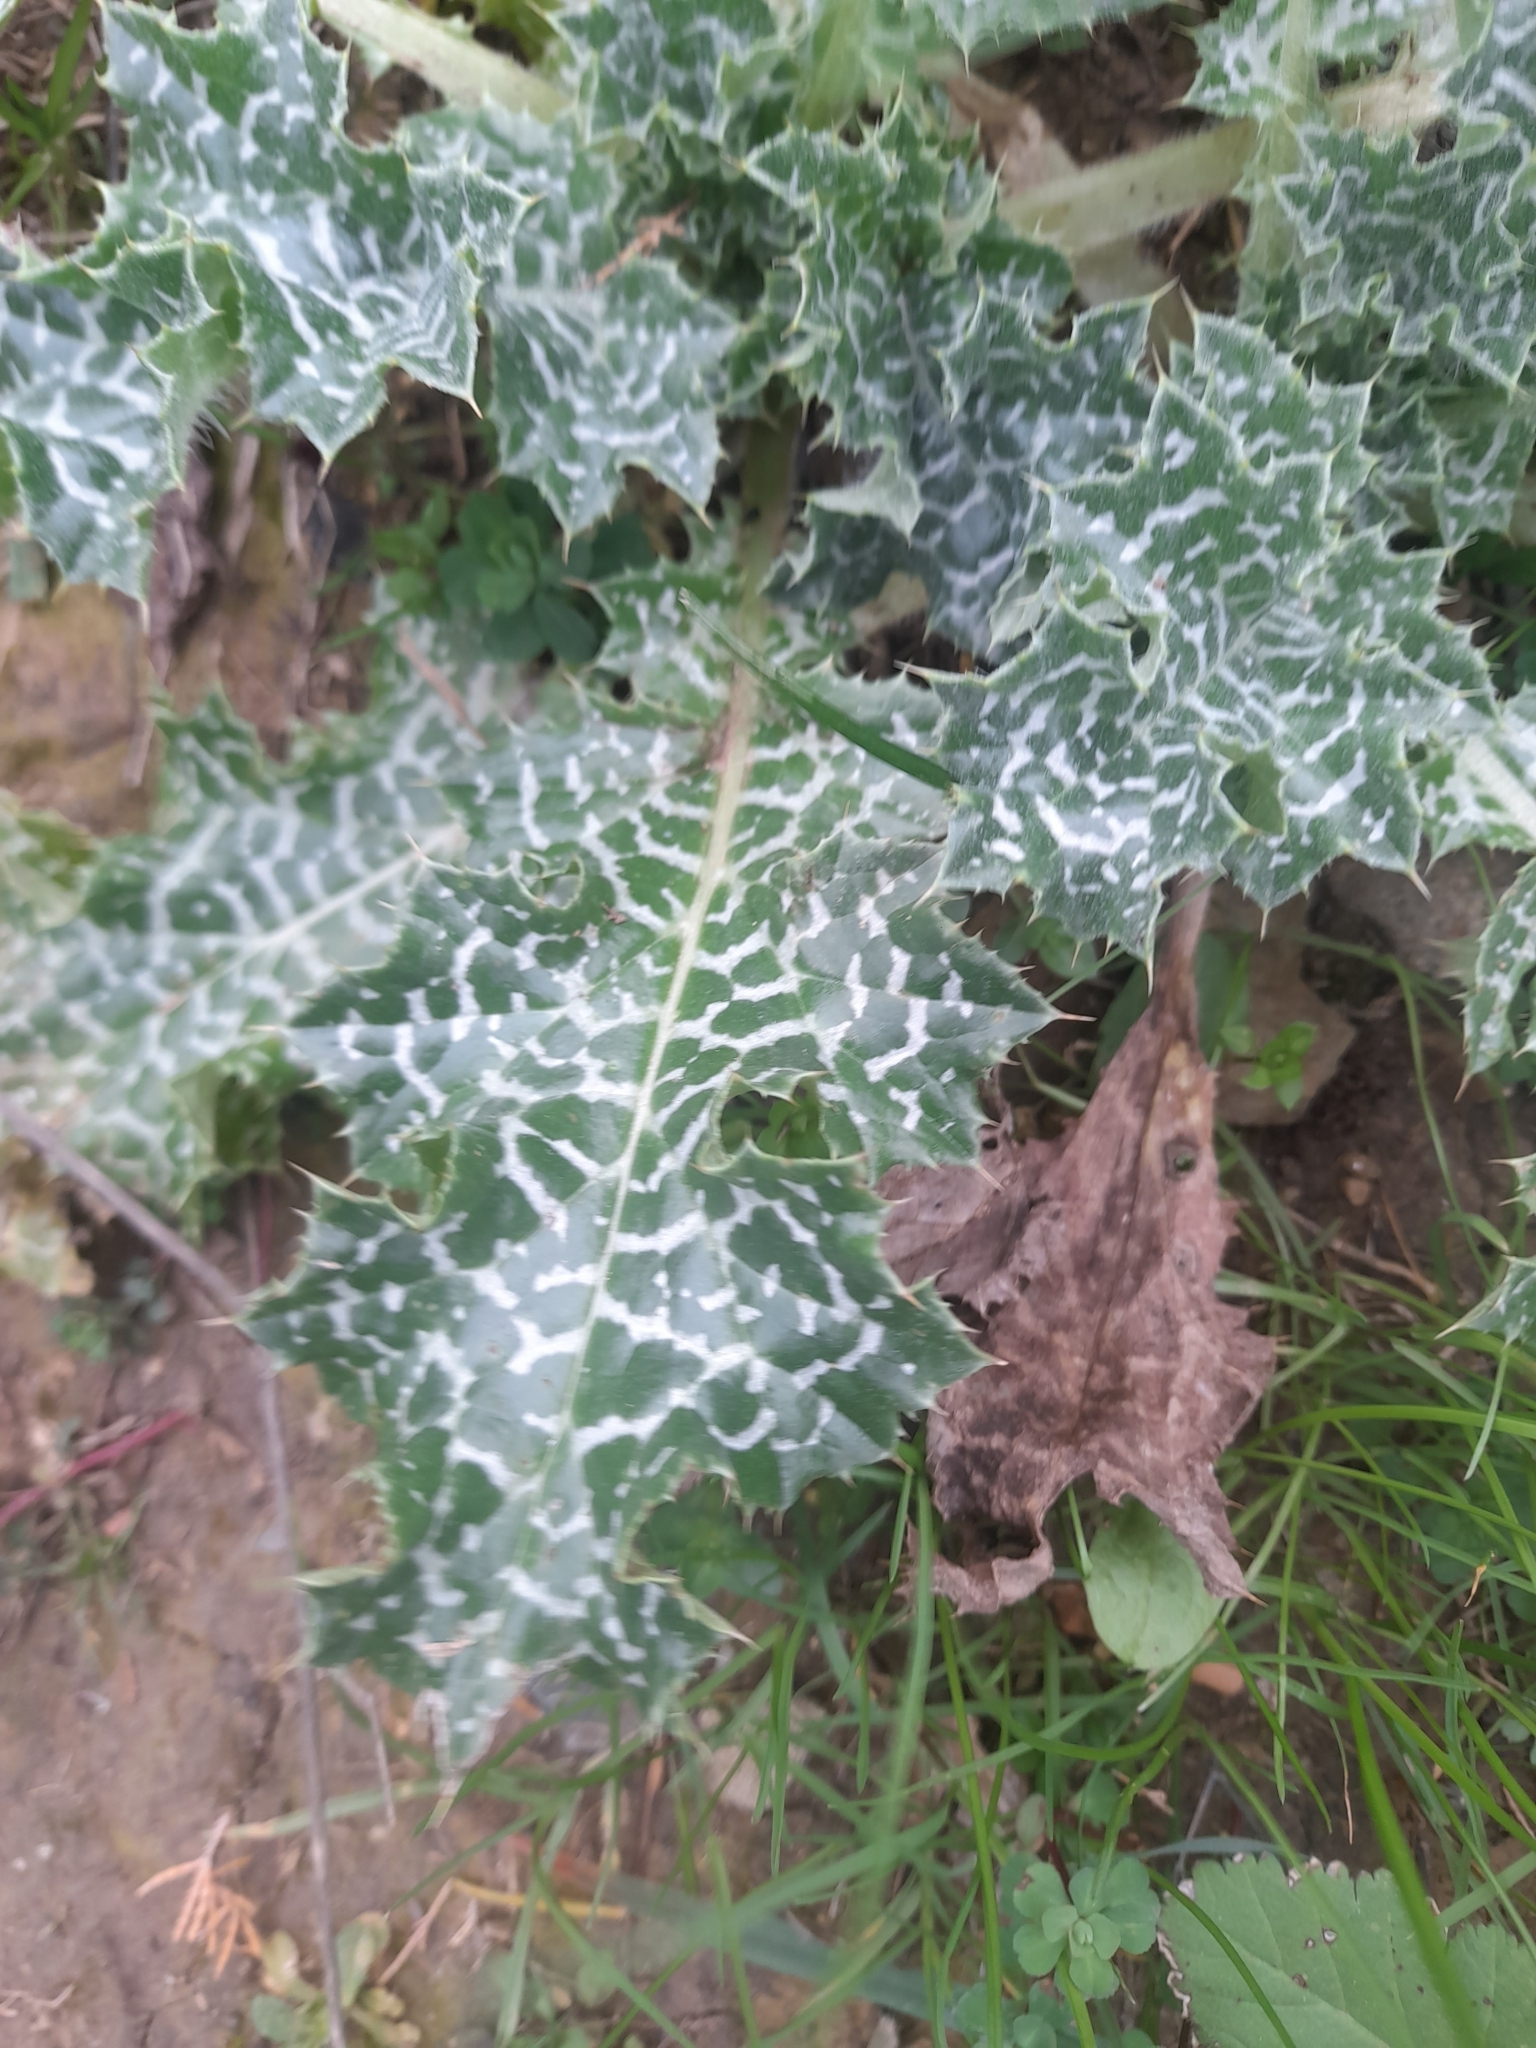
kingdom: Plantae
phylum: Tracheophyta
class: Magnoliopsida
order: Asterales
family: Asteraceae
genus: Silybum
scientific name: Silybum marianum
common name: Milk thistle
